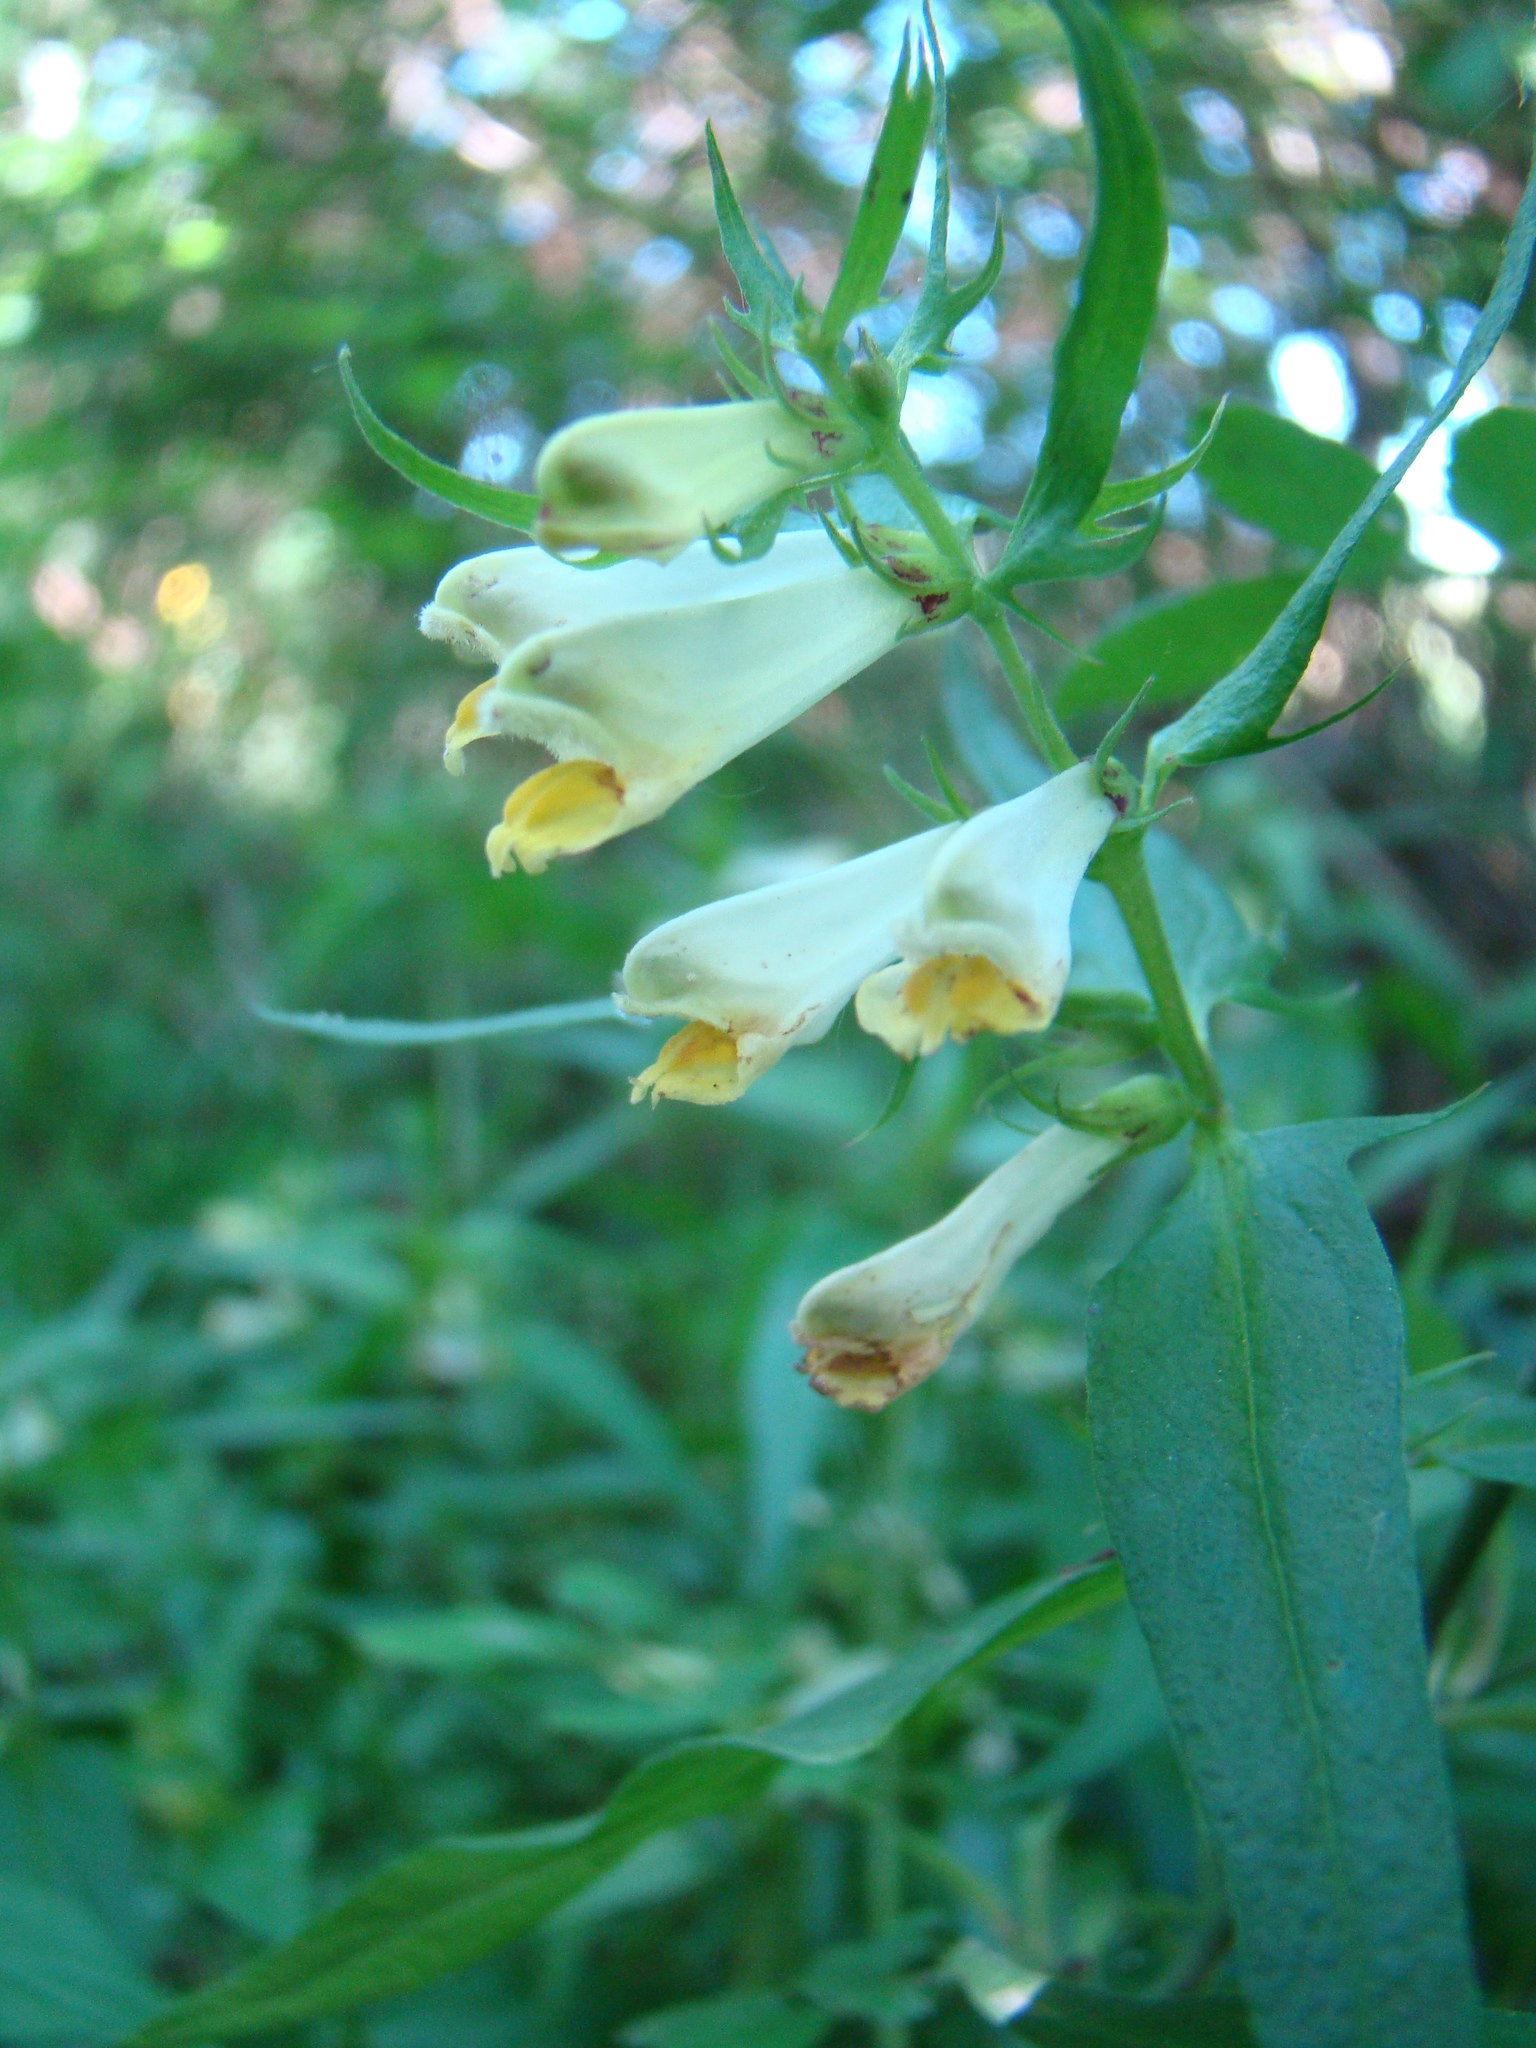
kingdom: Plantae
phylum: Tracheophyta
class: Magnoliopsida
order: Lamiales
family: Orobanchaceae
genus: Melampyrum
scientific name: Melampyrum pratense
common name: Common cow-wheat
